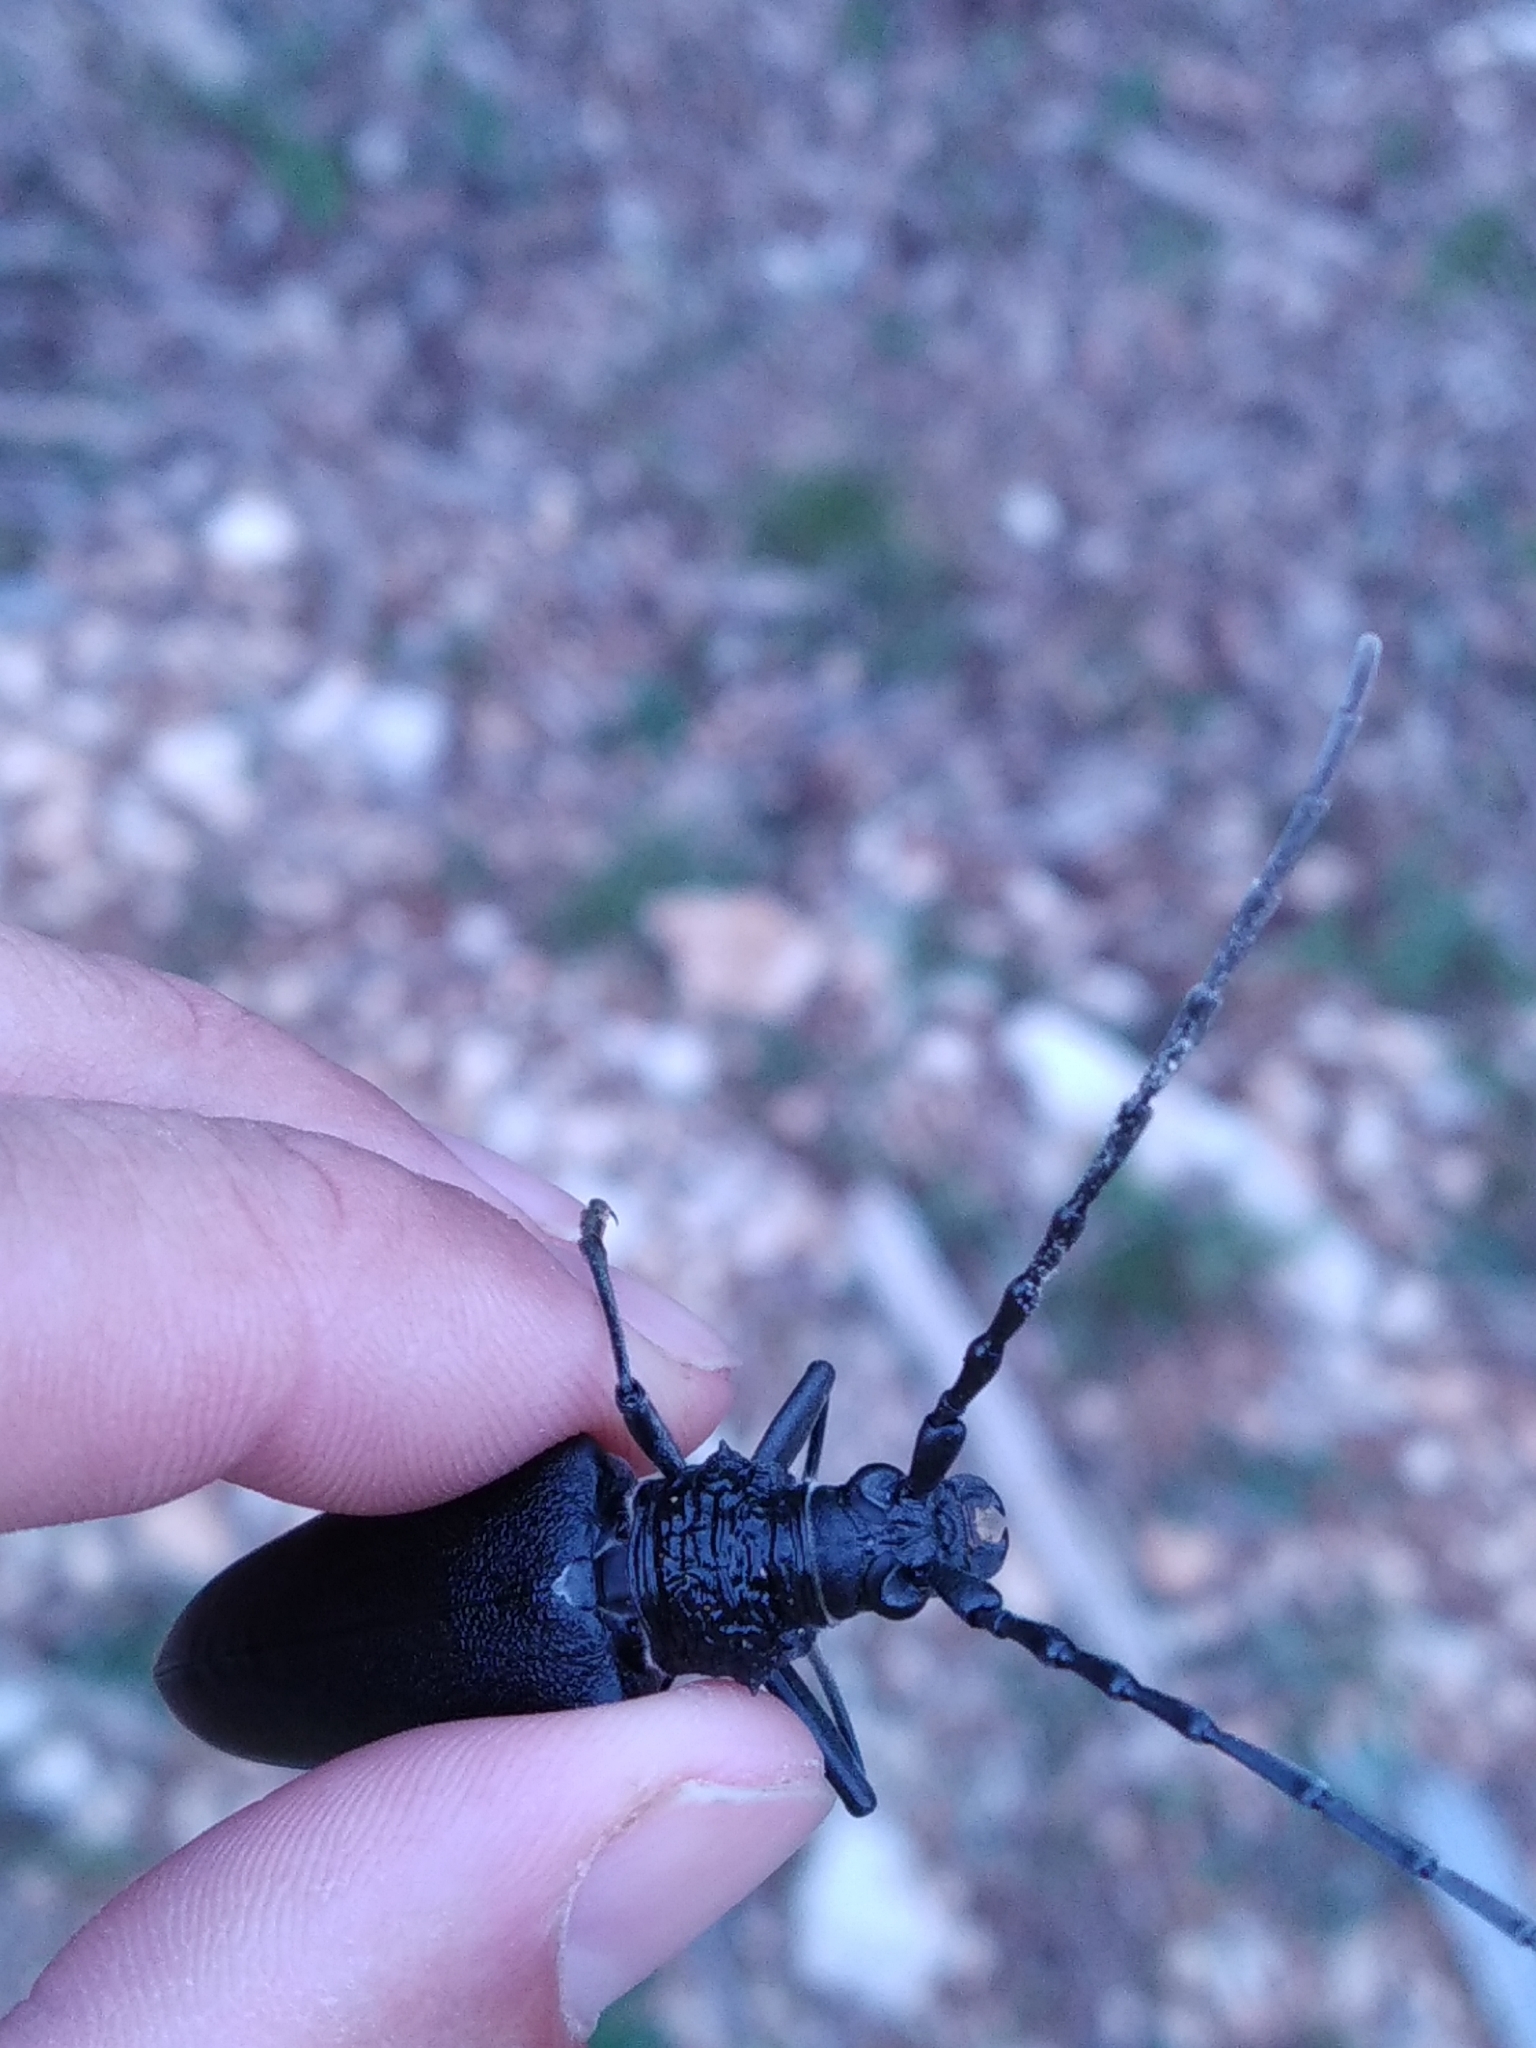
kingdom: Animalia
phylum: Arthropoda
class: Insecta
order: Coleoptera
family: Cerambycidae
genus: Cerambyx
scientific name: Cerambyx cerdo
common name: Cerambyx longicorn
